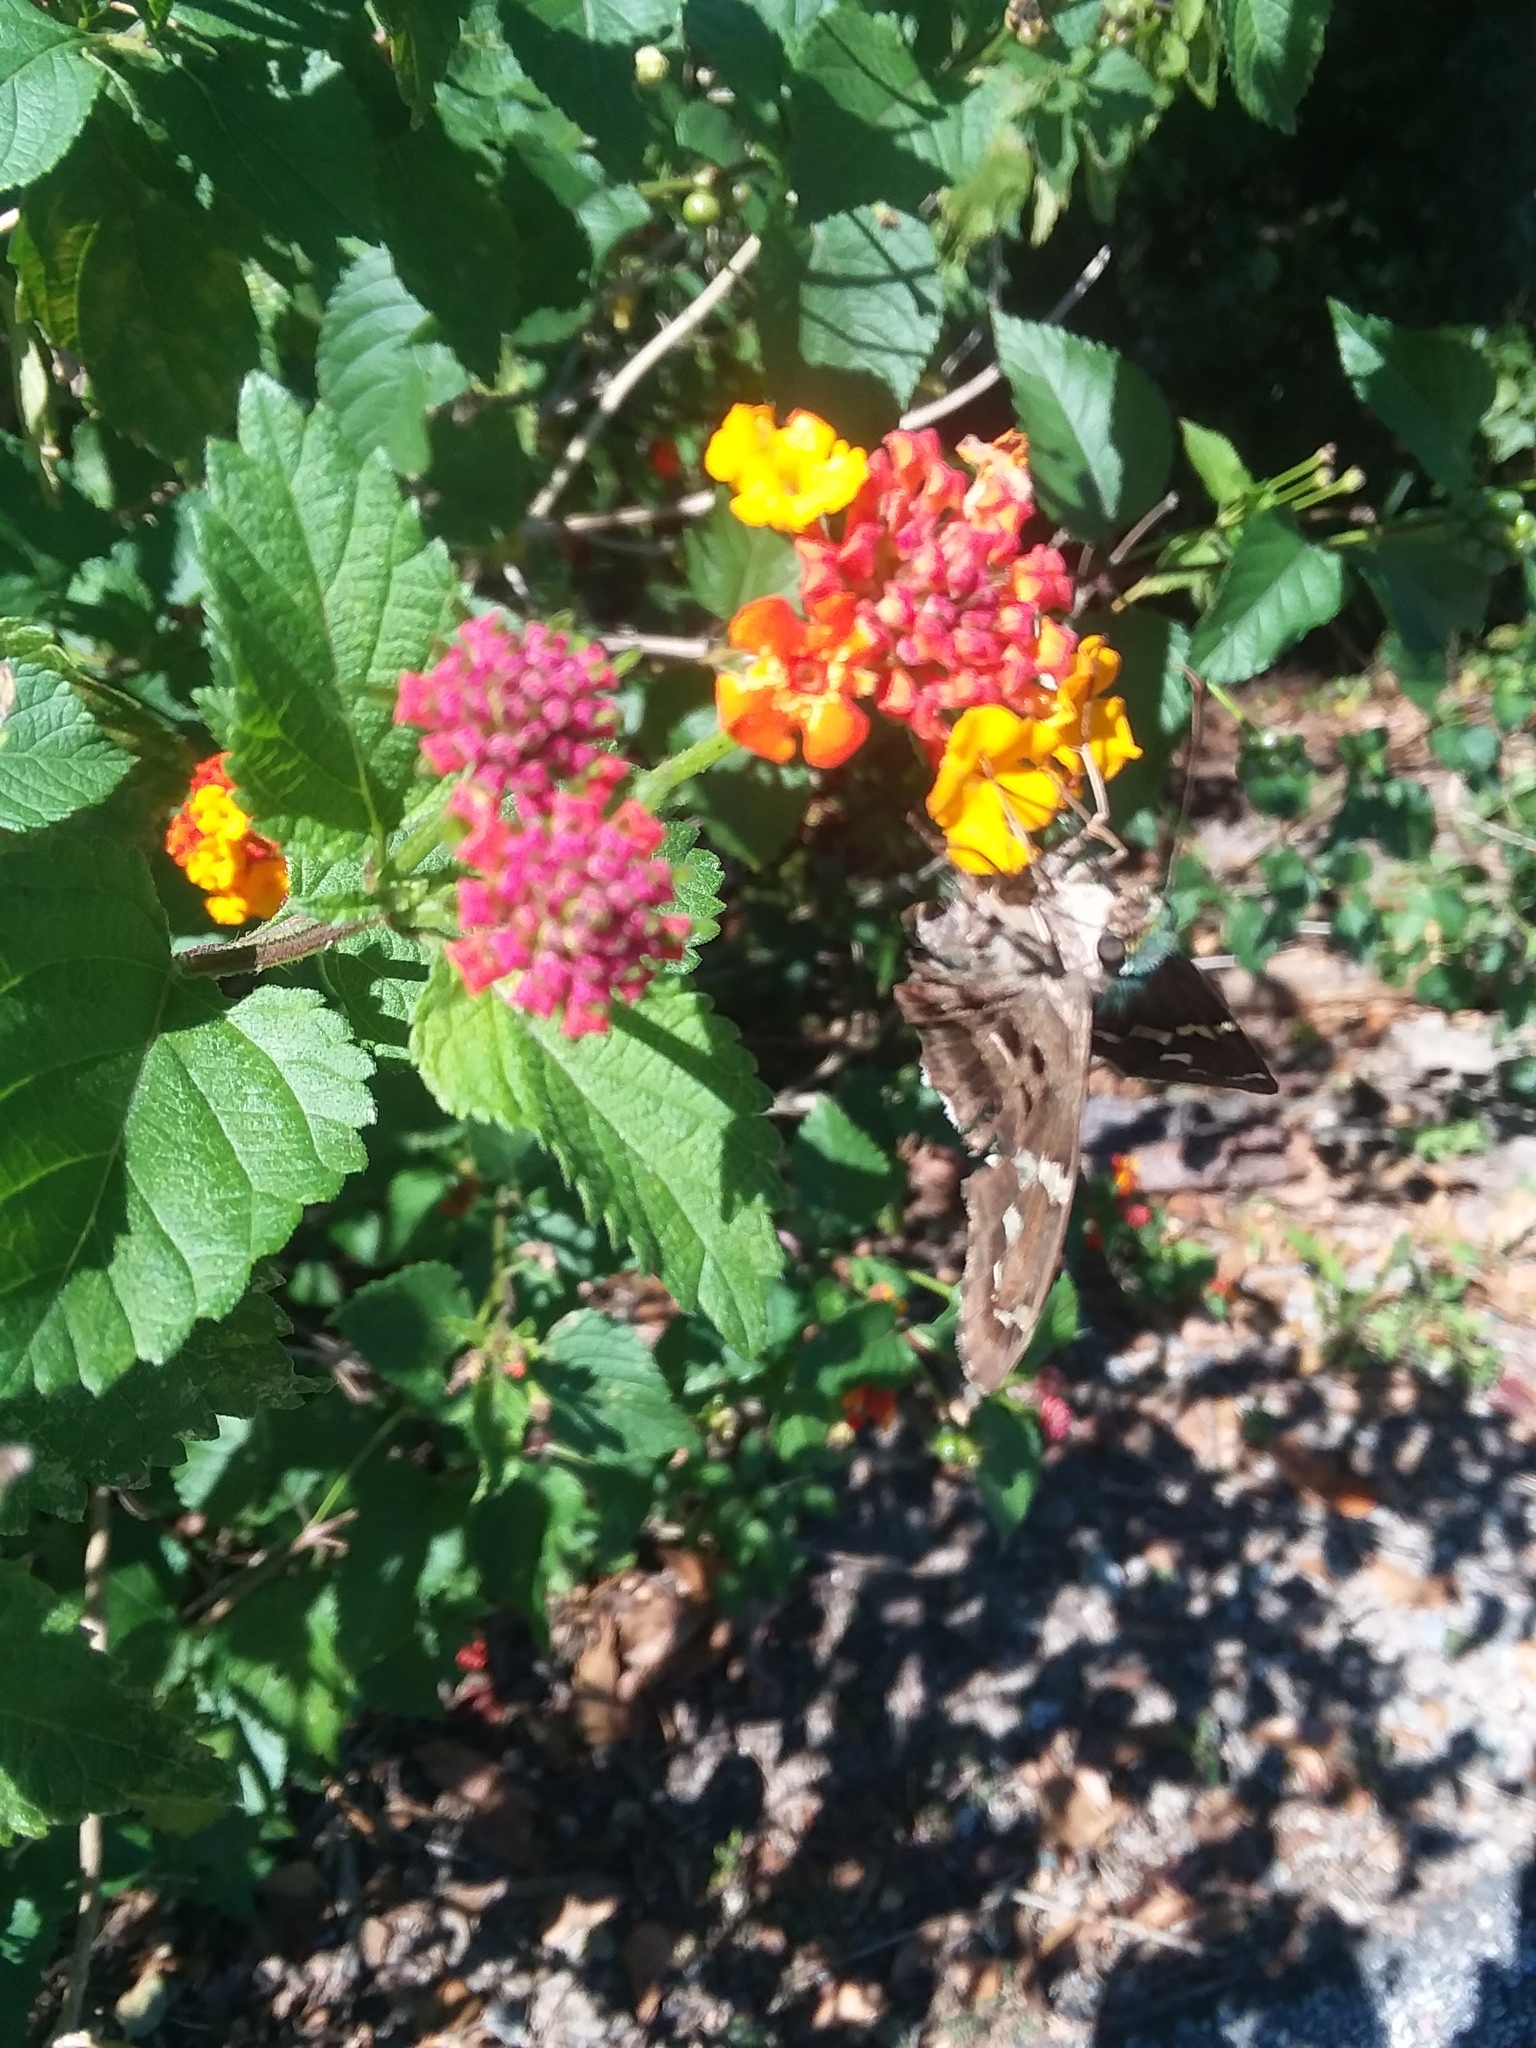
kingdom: Animalia
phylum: Arthropoda
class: Insecta
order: Lepidoptera
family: Hesperiidae
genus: Urbanus
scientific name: Urbanus proteus
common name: Long-tailed skipper
